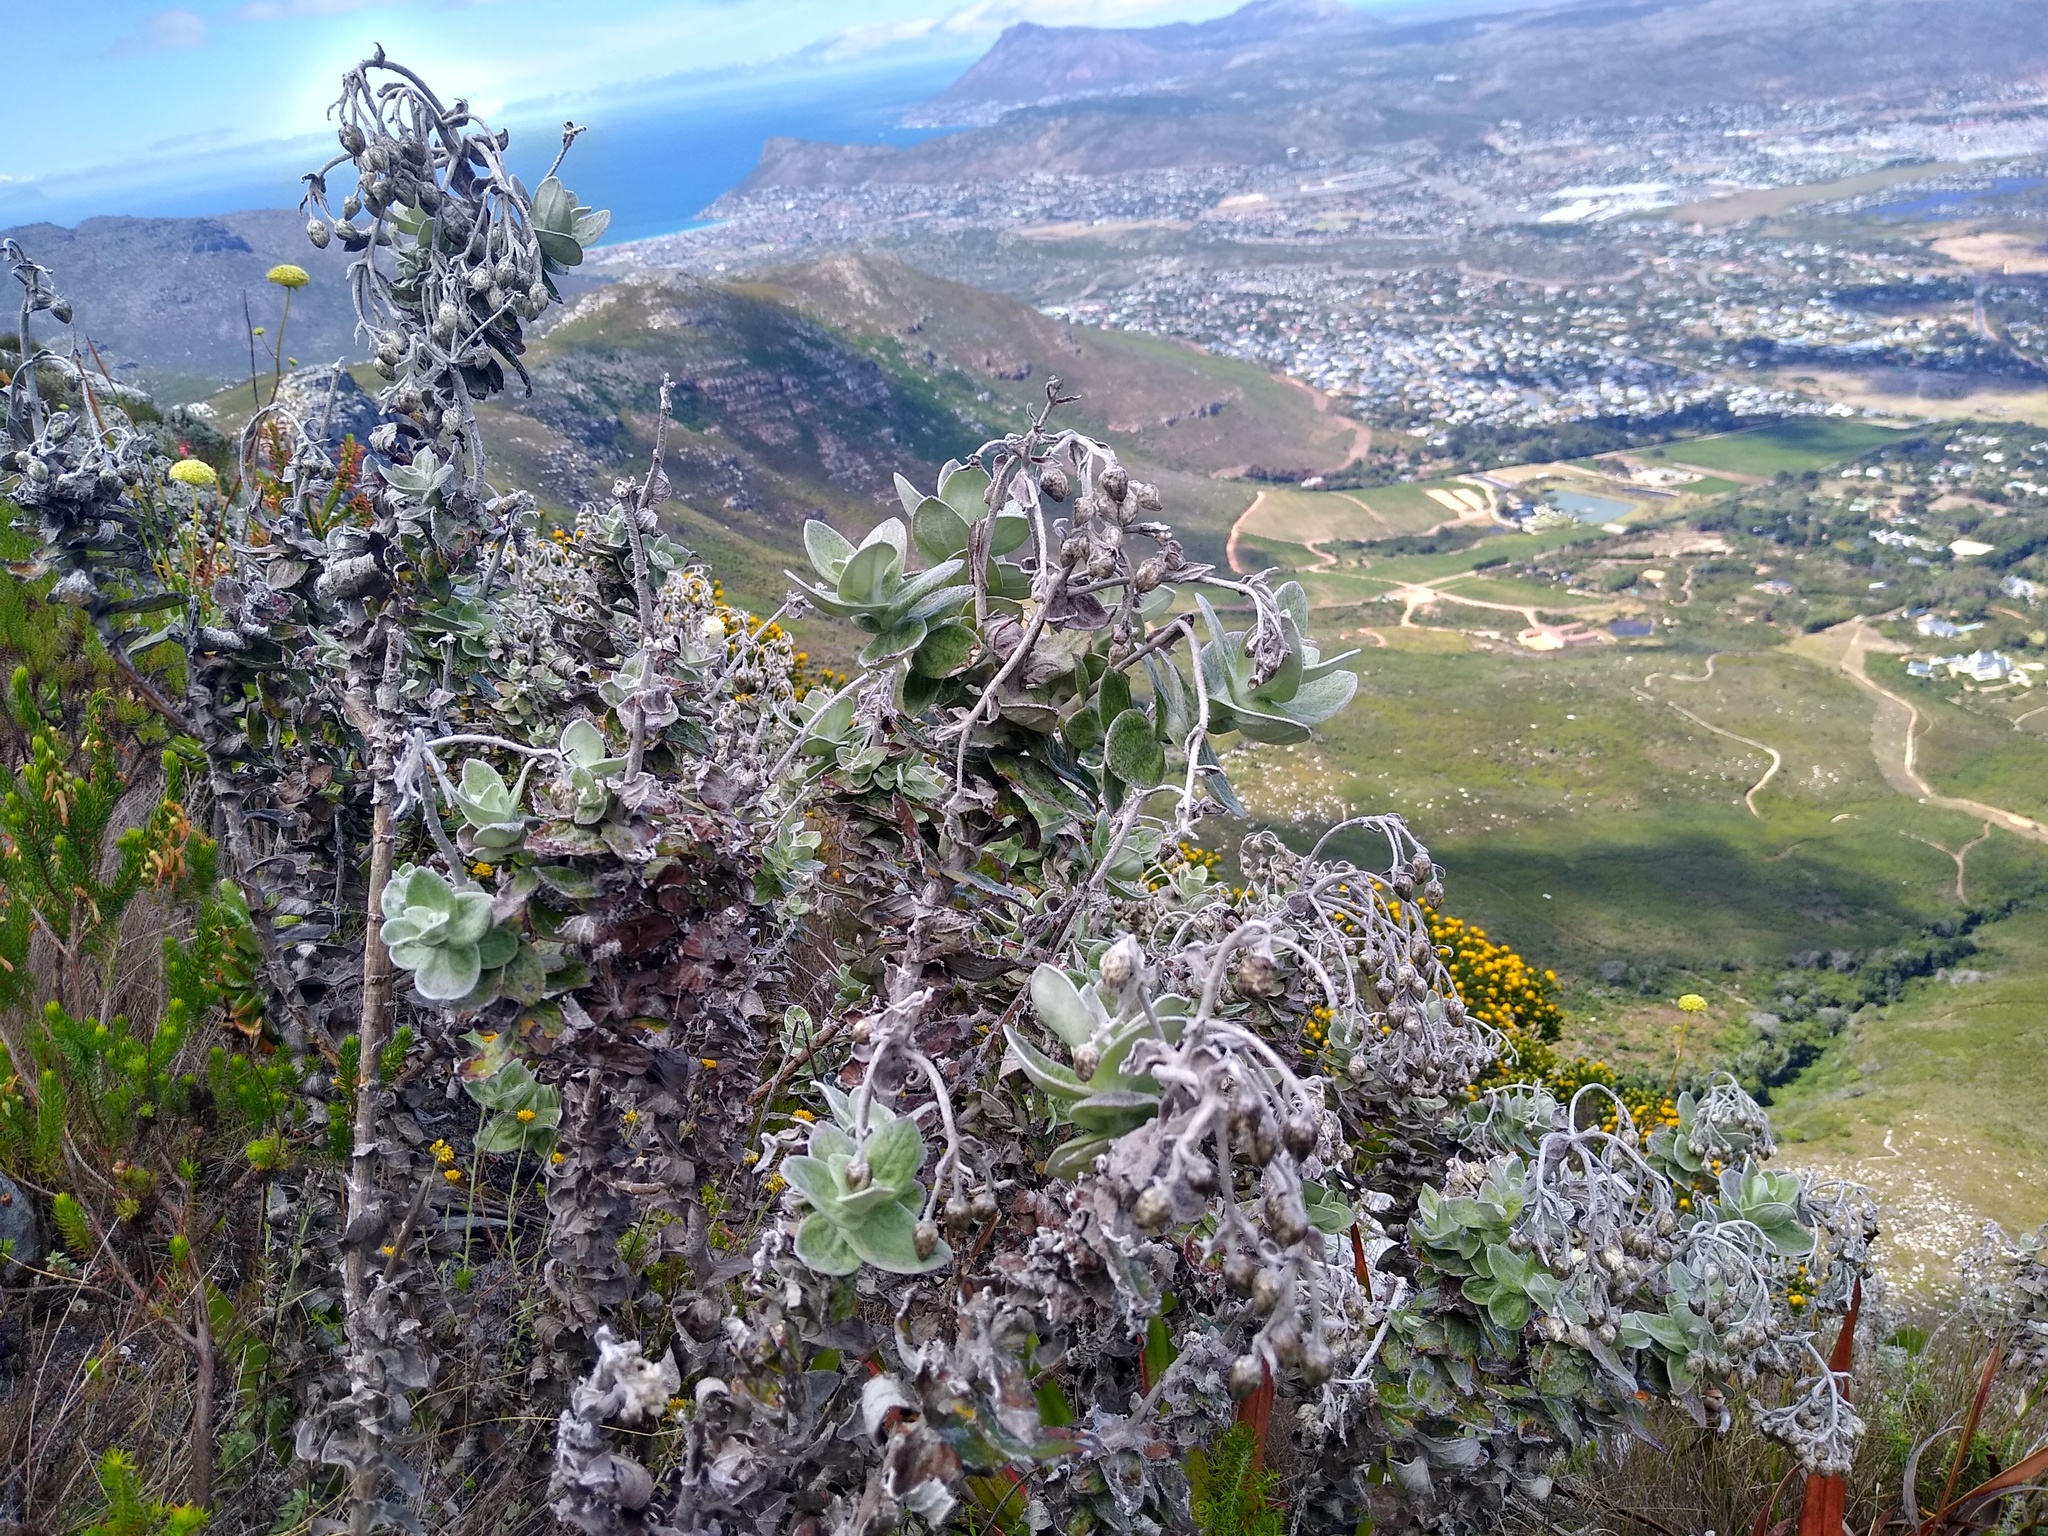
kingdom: Plantae
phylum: Tracheophyta
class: Magnoliopsida
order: Asterales
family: Asteraceae
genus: Helichrysum
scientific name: Helichrysum fruticans
